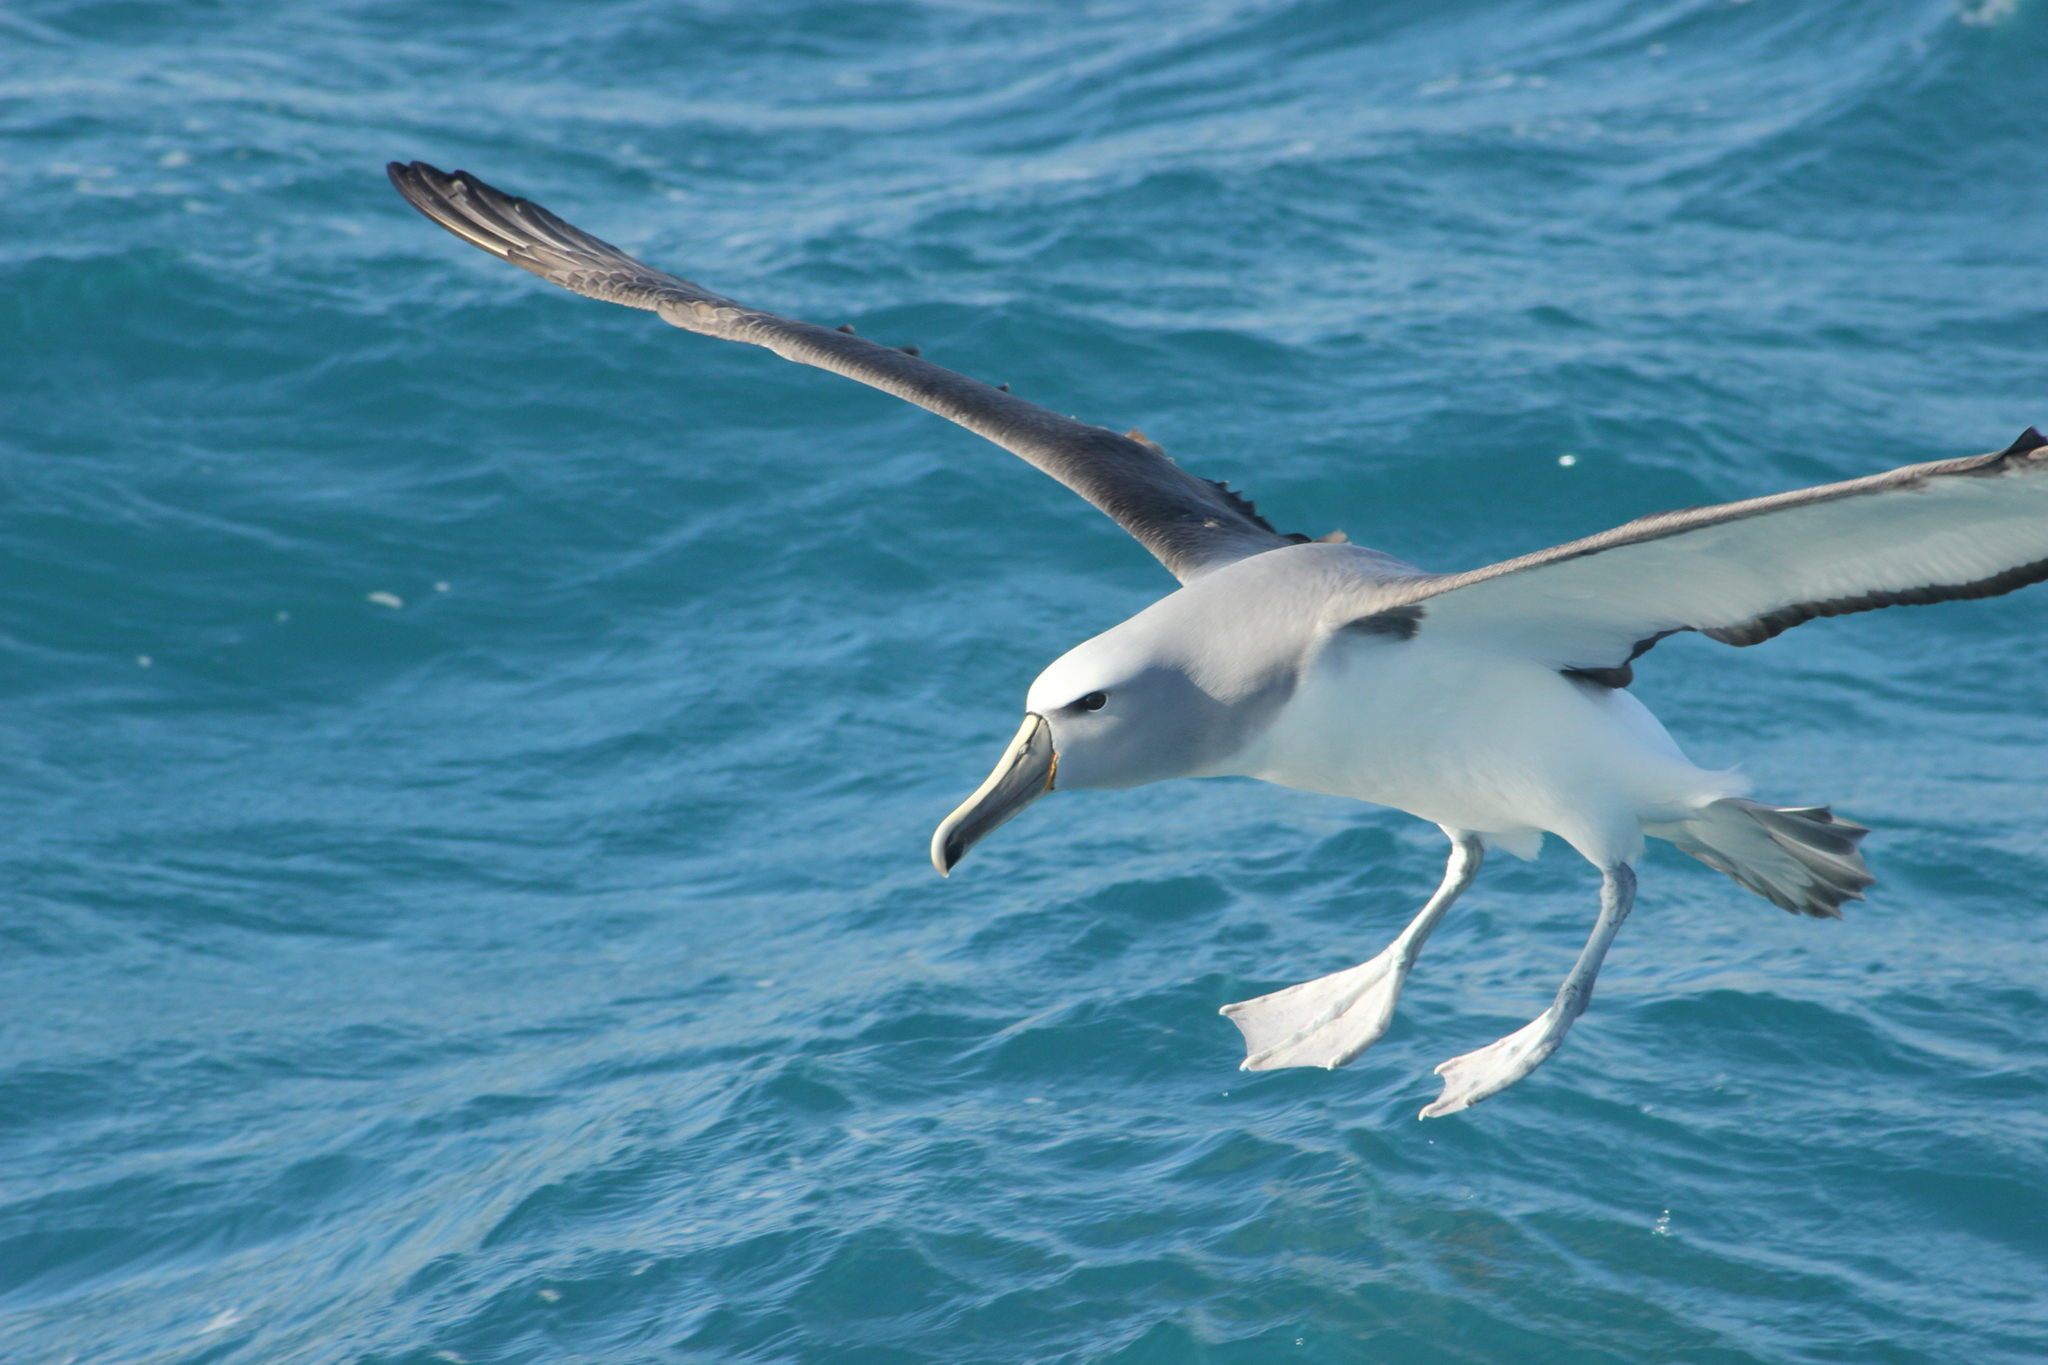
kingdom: Animalia
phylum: Chordata
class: Aves
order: Procellariiformes
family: Diomedeidae
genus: Thalassarche
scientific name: Thalassarche salvini
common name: Salvin's albatross
